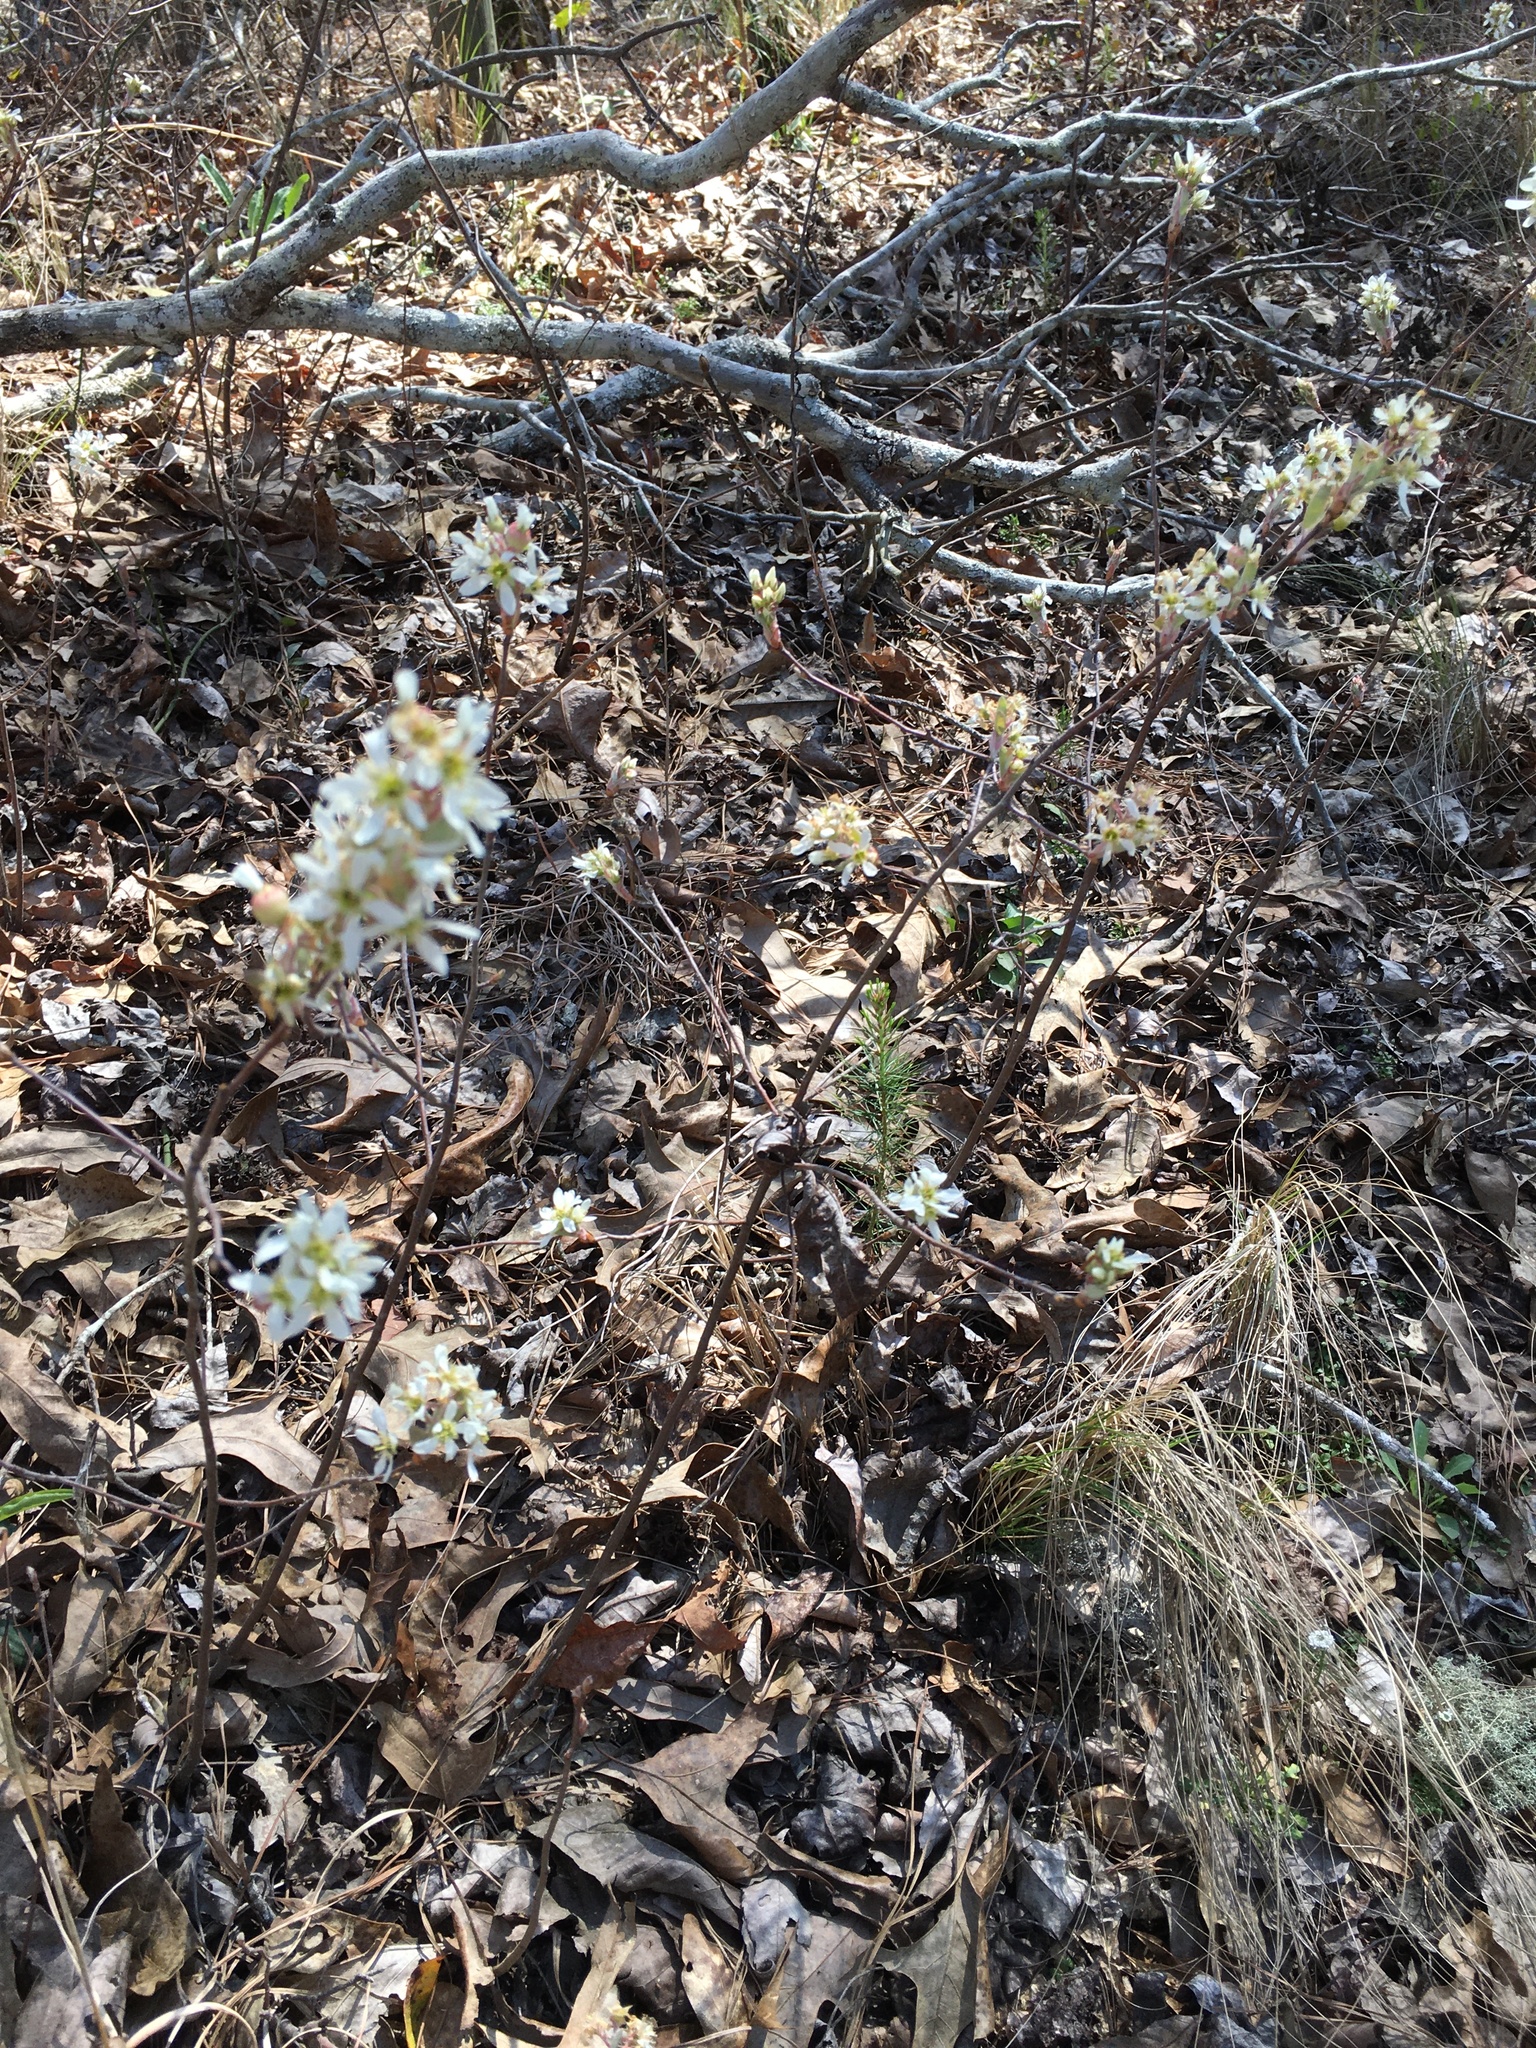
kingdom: Plantae
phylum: Tracheophyta
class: Magnoliopsida
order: Rosales
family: Rosaceae
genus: Amelanchier
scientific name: Amelanchier
